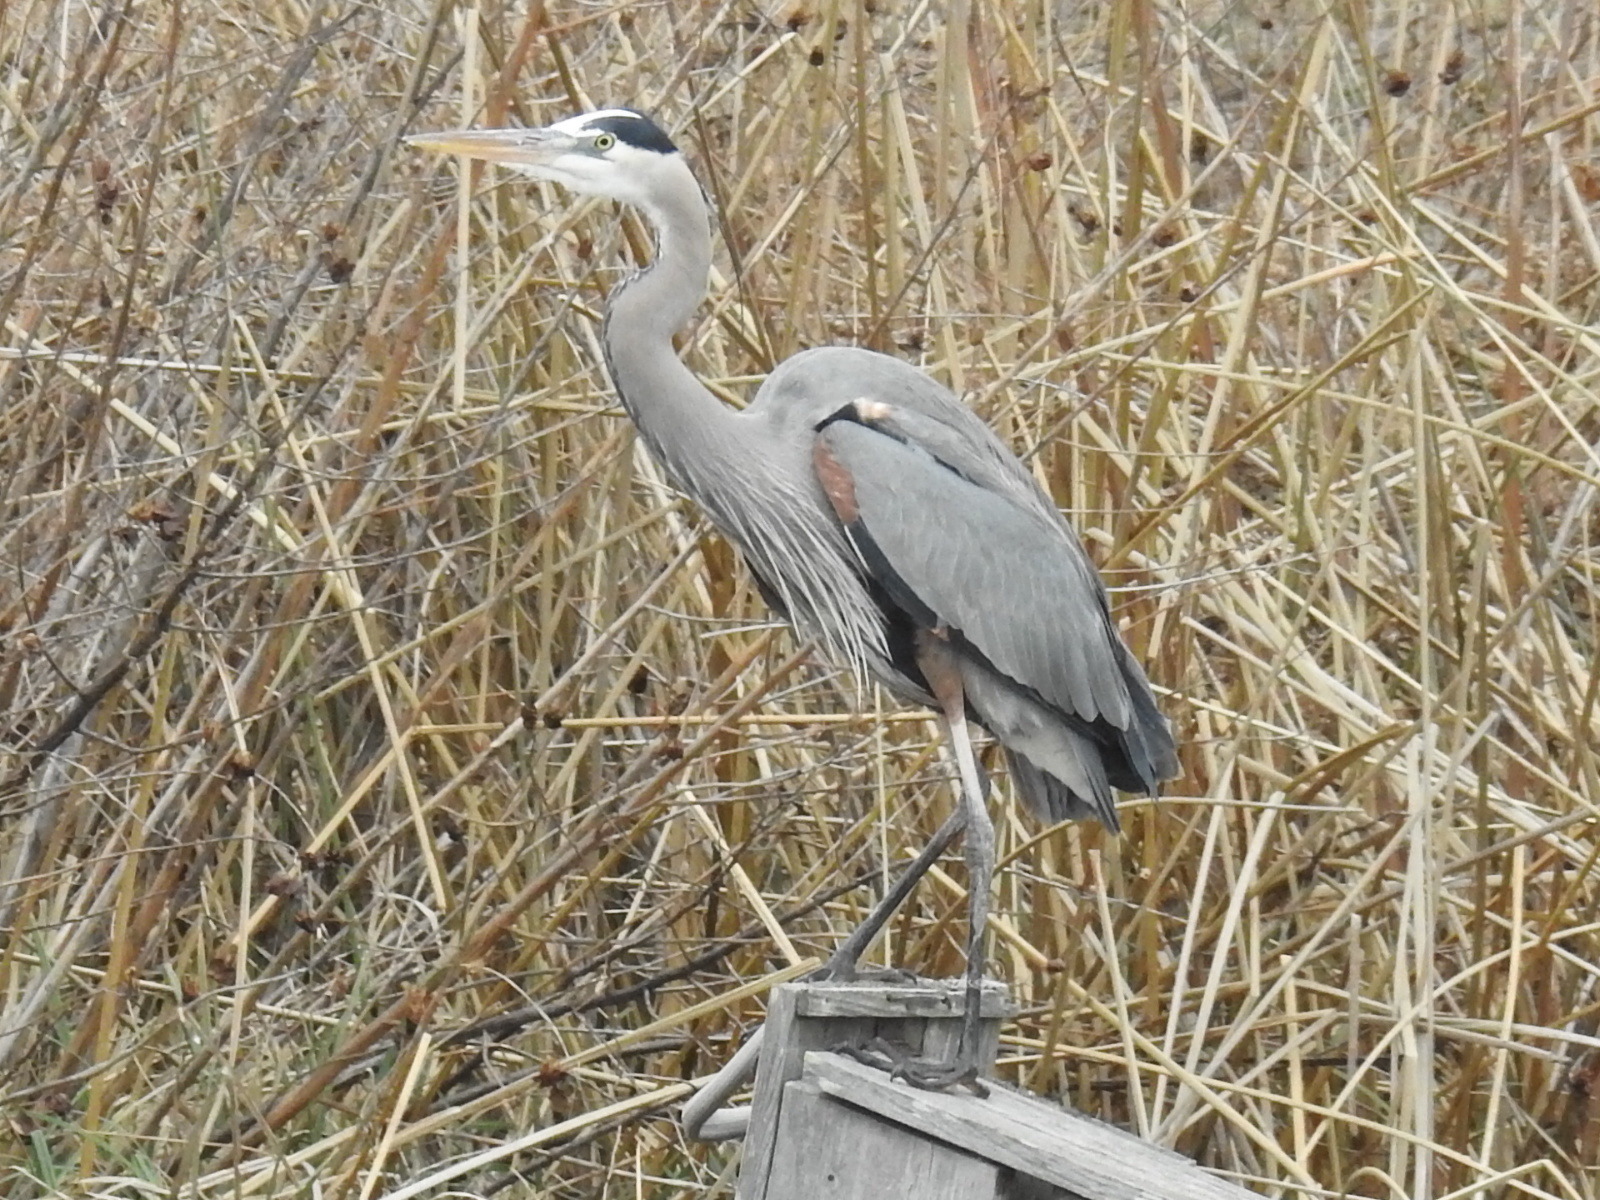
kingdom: Animalia
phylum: Chordata
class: Aves
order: Pelecaniformes
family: Ardeidae
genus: Ardea
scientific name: Ardea herodias
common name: Great blue heron
